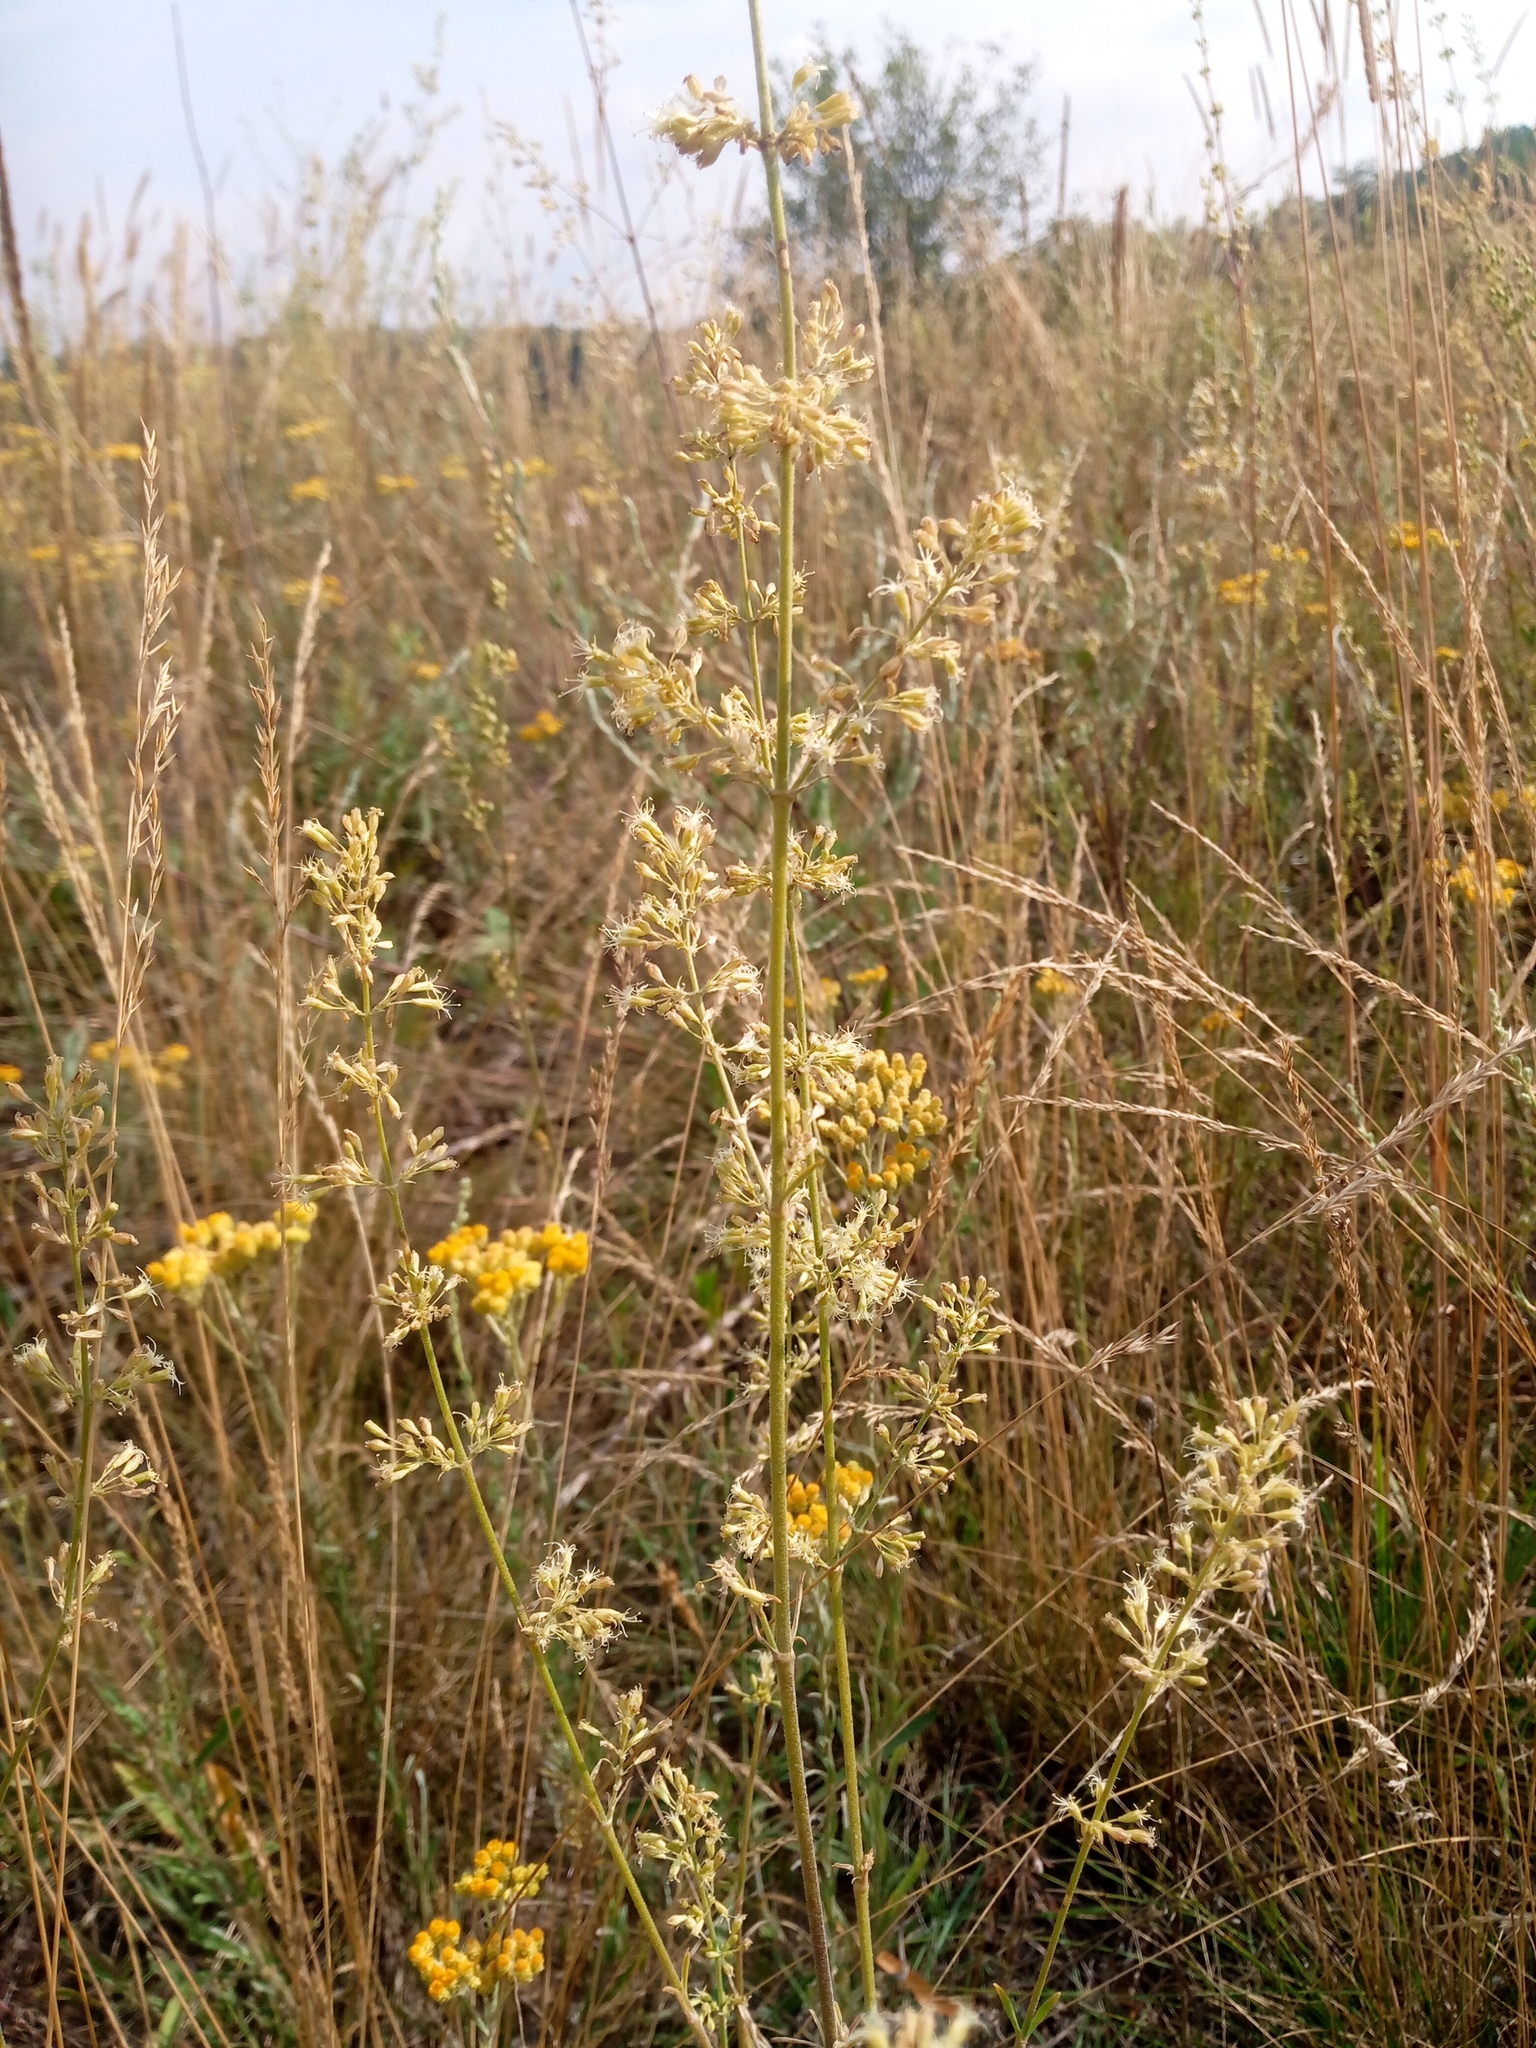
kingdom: Plantae
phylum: Tracheophyta
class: Magnoliopsida
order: Caryophyllales
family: Caryophyllaceae
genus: Silene
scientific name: Silene borysthenica
